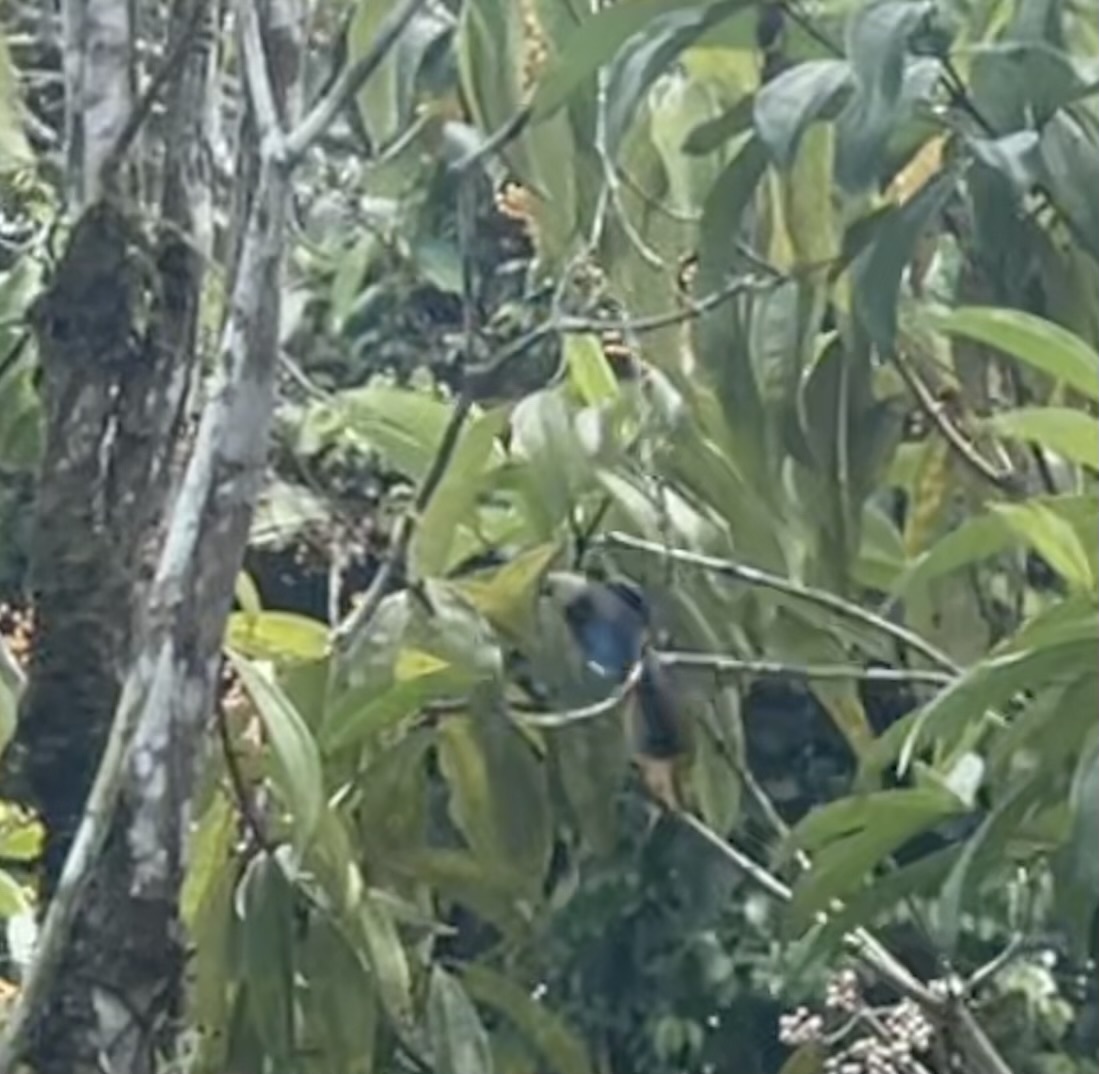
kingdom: Animalia
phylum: Chordata
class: Aves
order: Passeriformes
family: Thraupidae
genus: Stilpnia
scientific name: Stilpnia larvata
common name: Golden-hooded tanager
